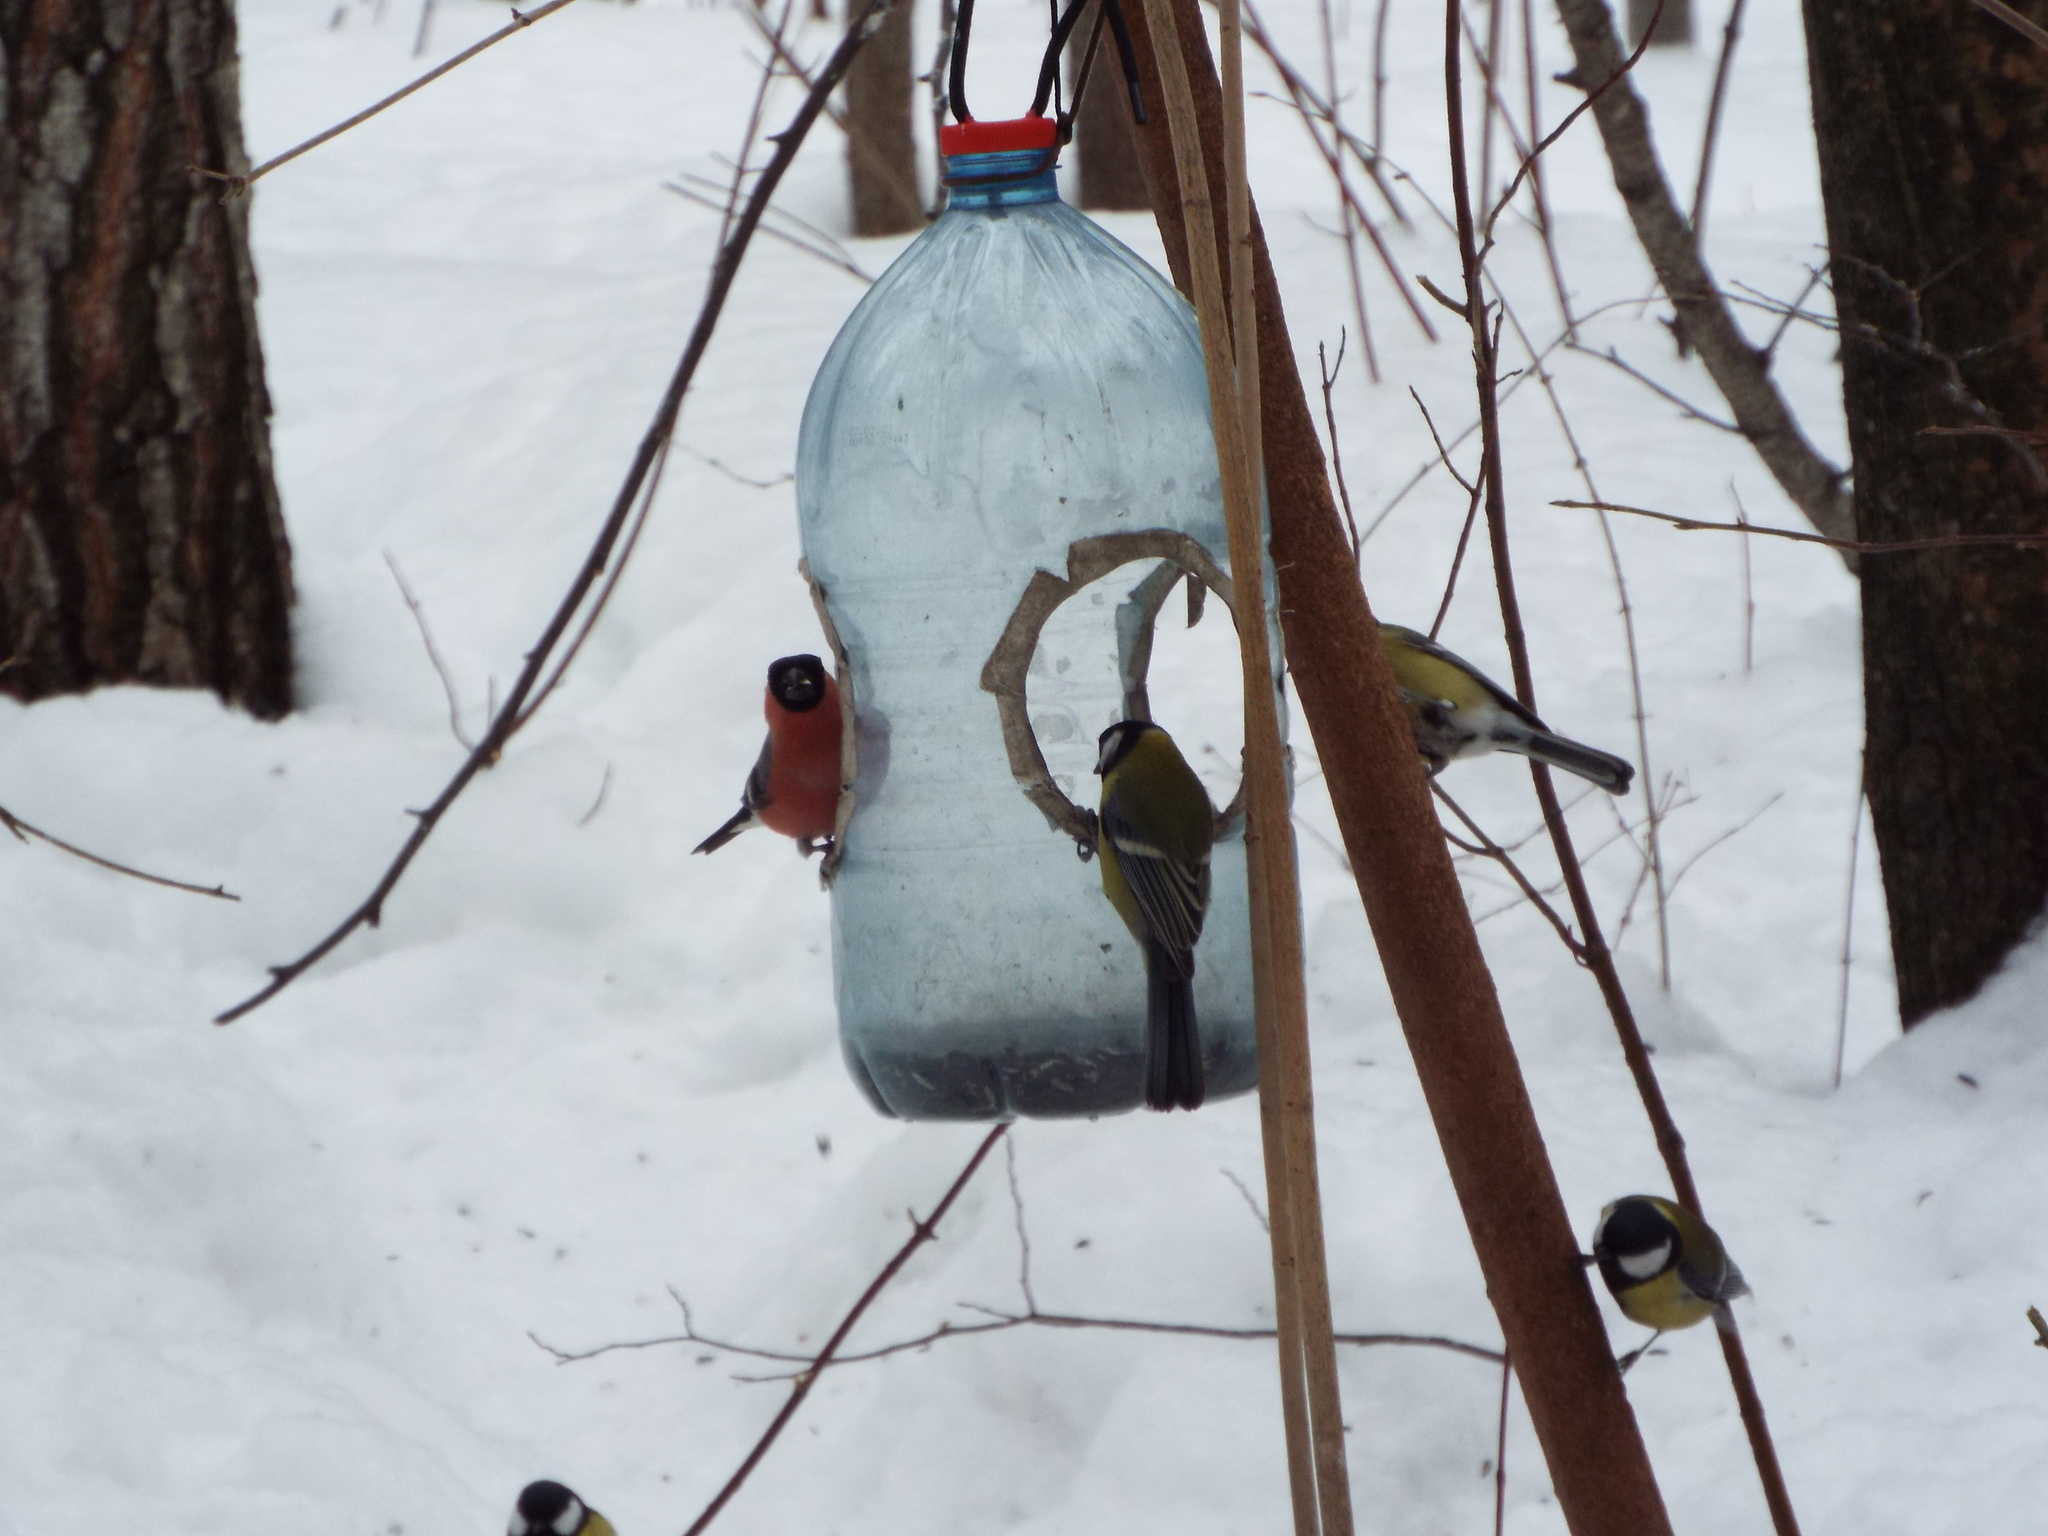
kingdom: Animalia
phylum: Chordata
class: Aves
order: Passeriformes
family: Fringillidae
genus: Pyrrhula
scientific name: Pyrrhula pyrrhula
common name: Eurasian bullfinch
